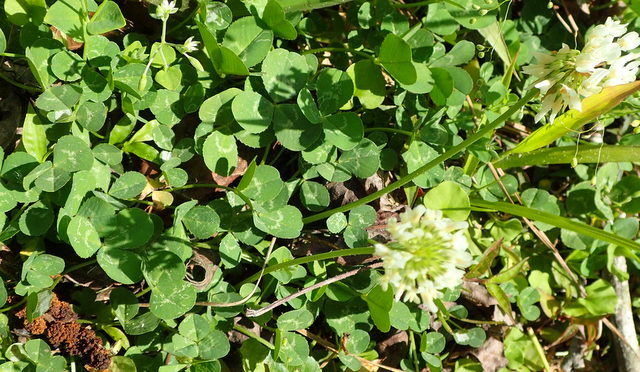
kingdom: Plantae
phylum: Tracheophyta
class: Magnoliopsida
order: Fabales
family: Fabaceae
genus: Trifolium
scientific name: Trifolium repens
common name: White clover
